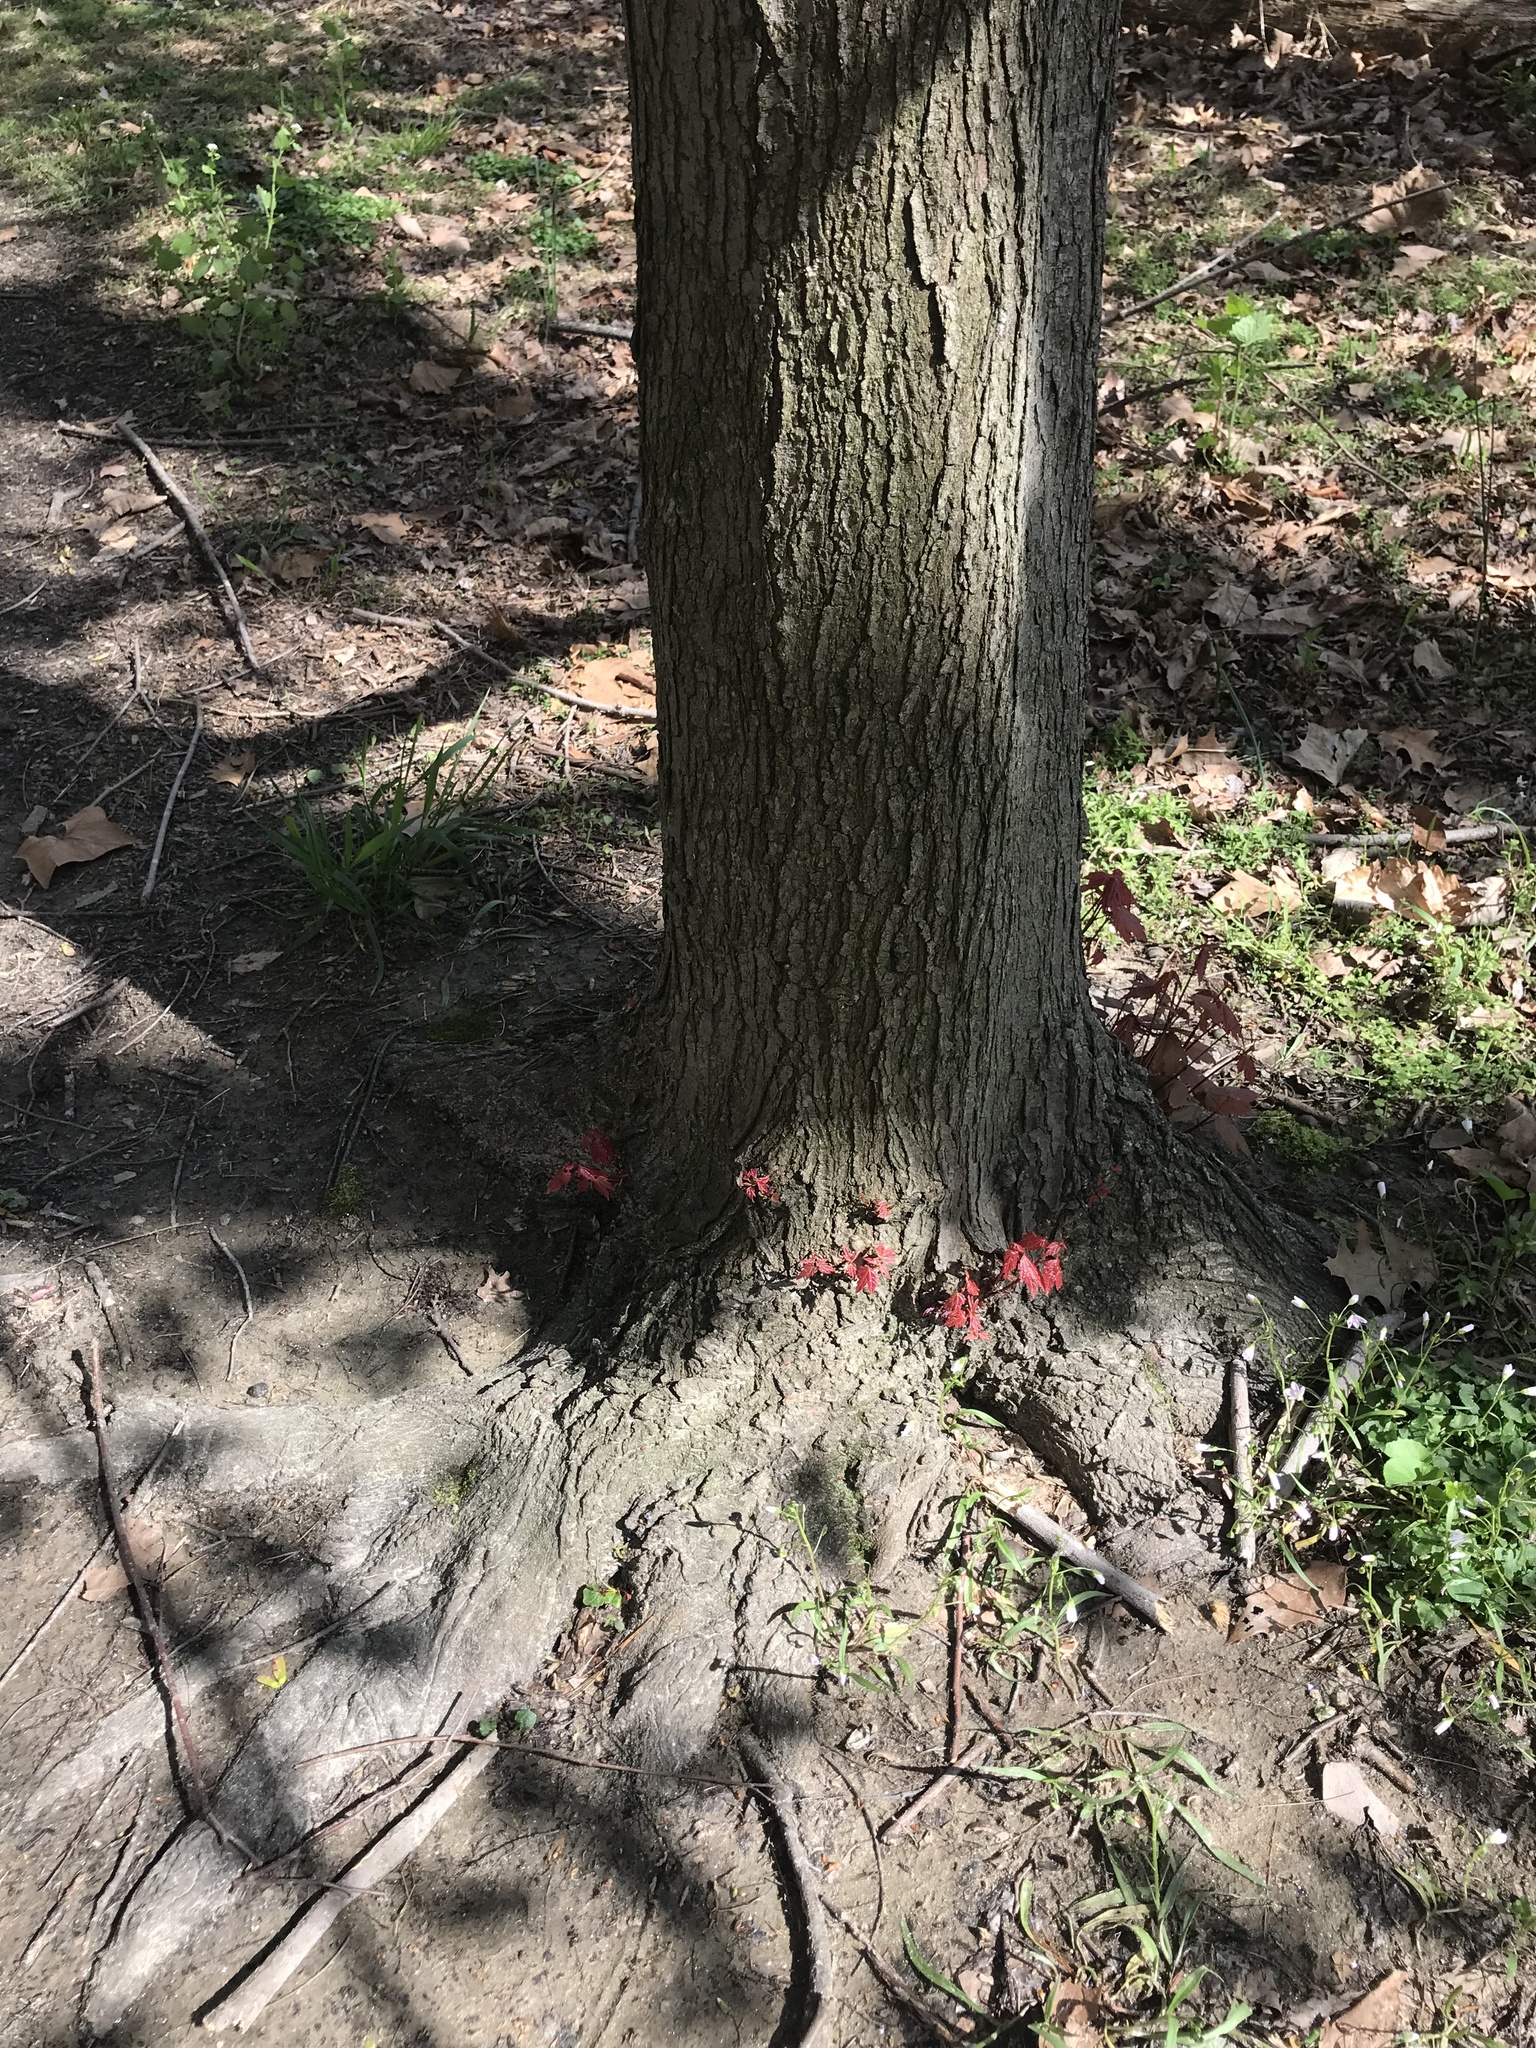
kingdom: Plantae
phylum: Tracheophyta
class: Magnoliopsida
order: Sapindales
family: Sapindaceae
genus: Acer
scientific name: Acer rubrum
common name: Red maple
